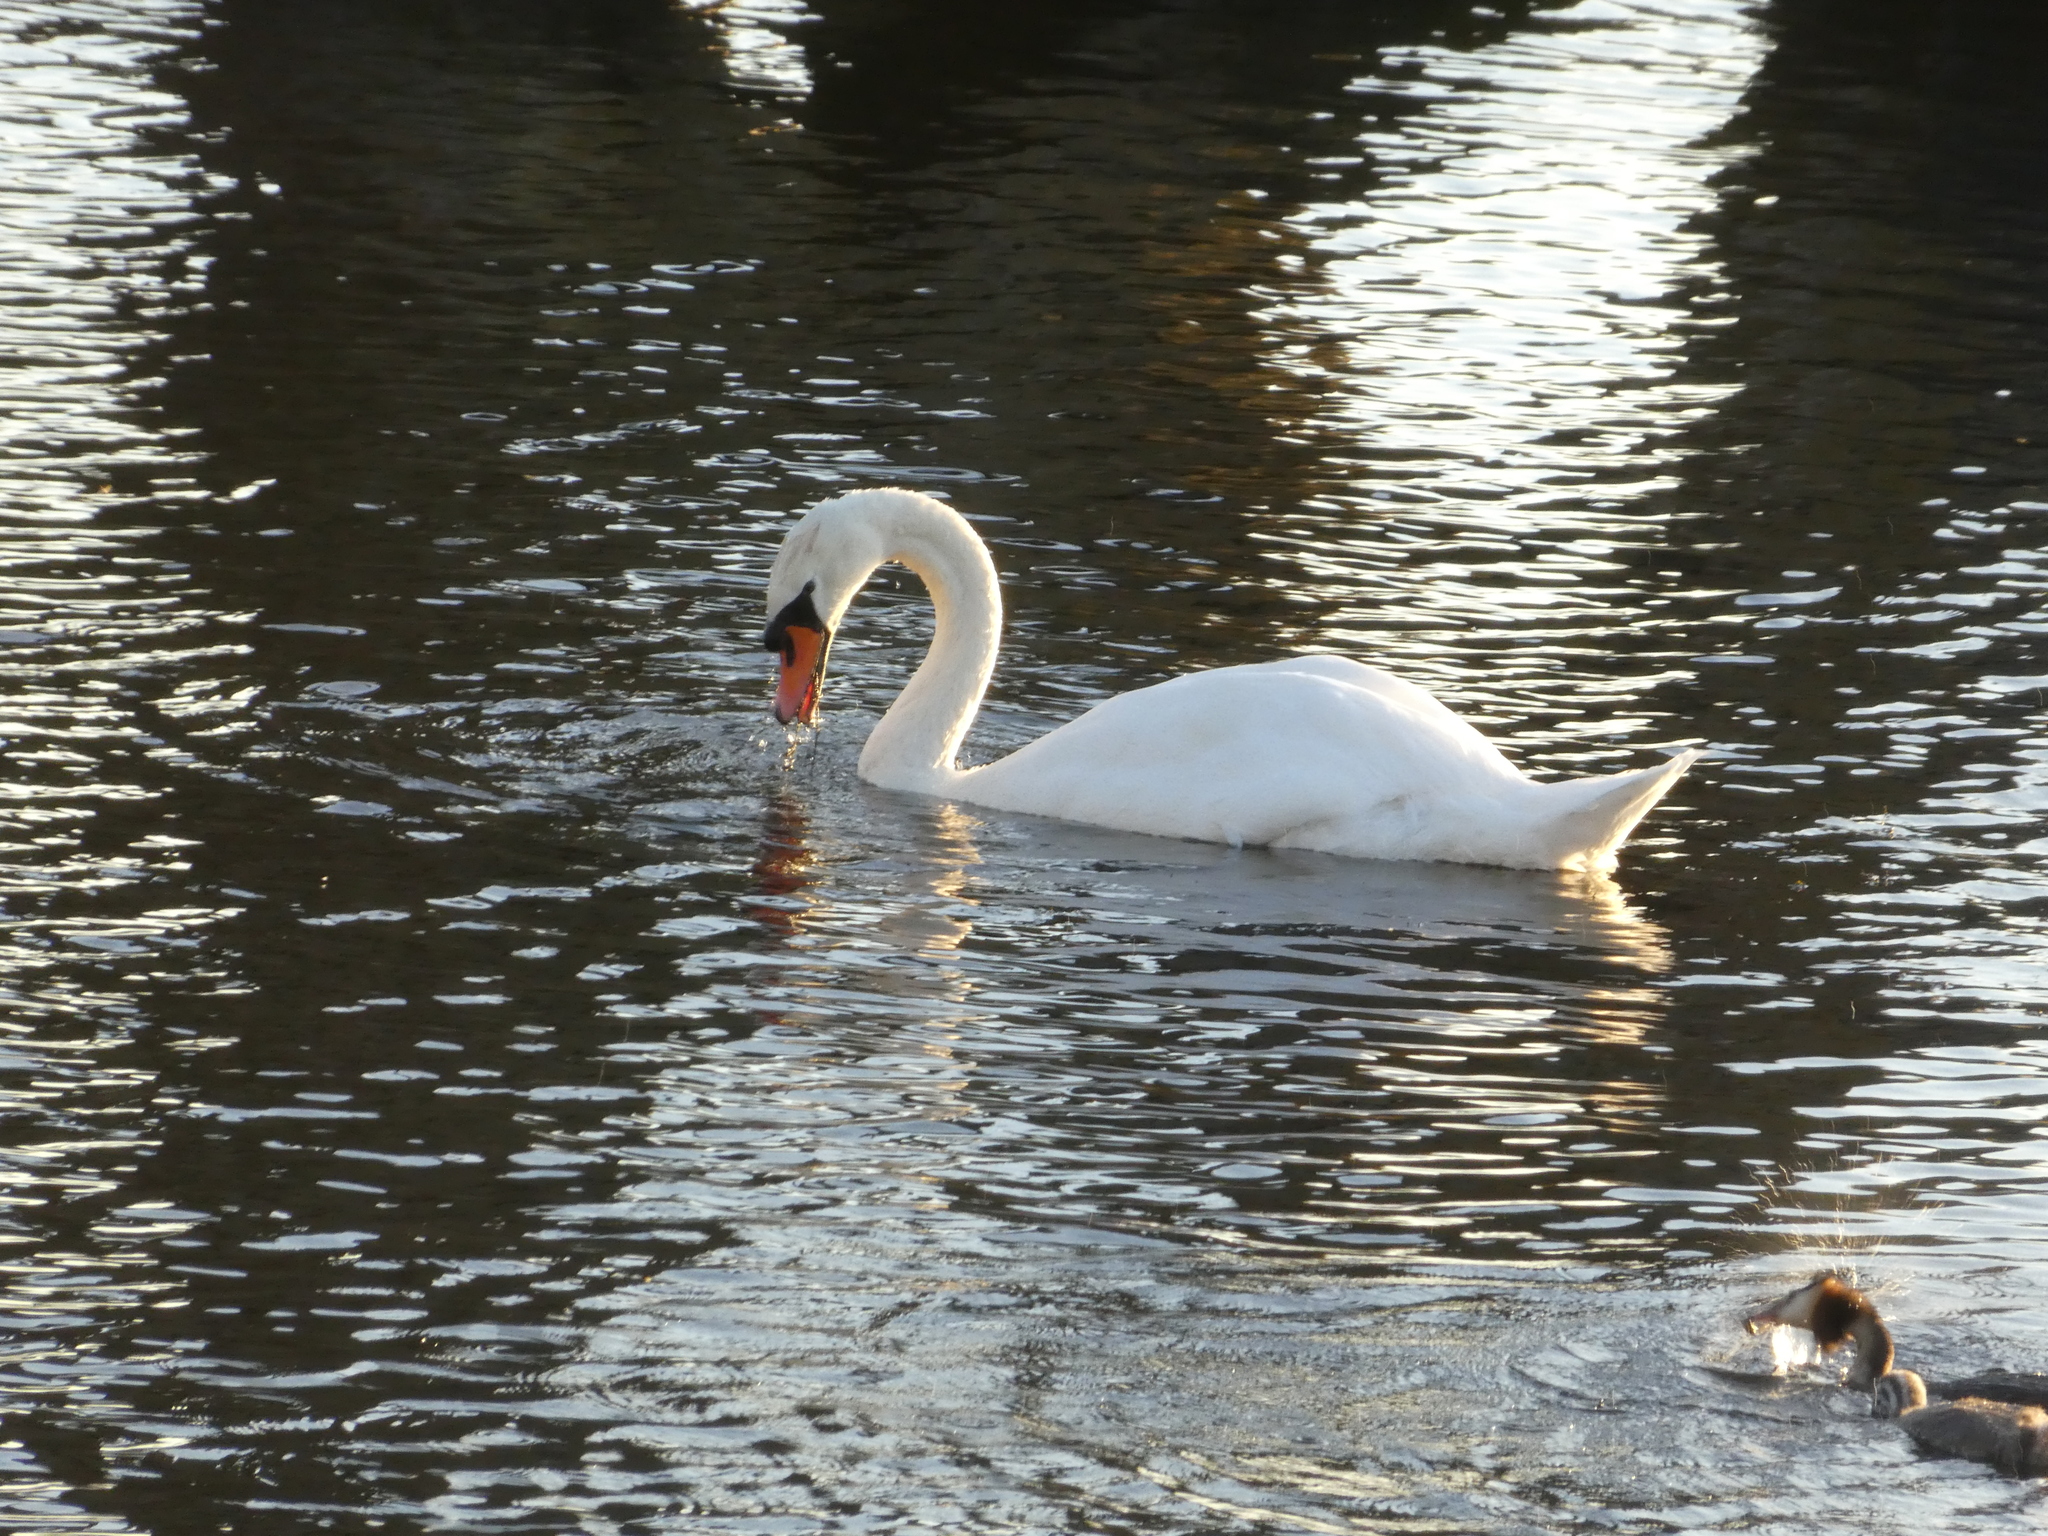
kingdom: Animalia
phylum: Chordata
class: Aves
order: Anseriformes
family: Anatidae
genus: Cygnus
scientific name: Cygnus olor
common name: Mute swan
